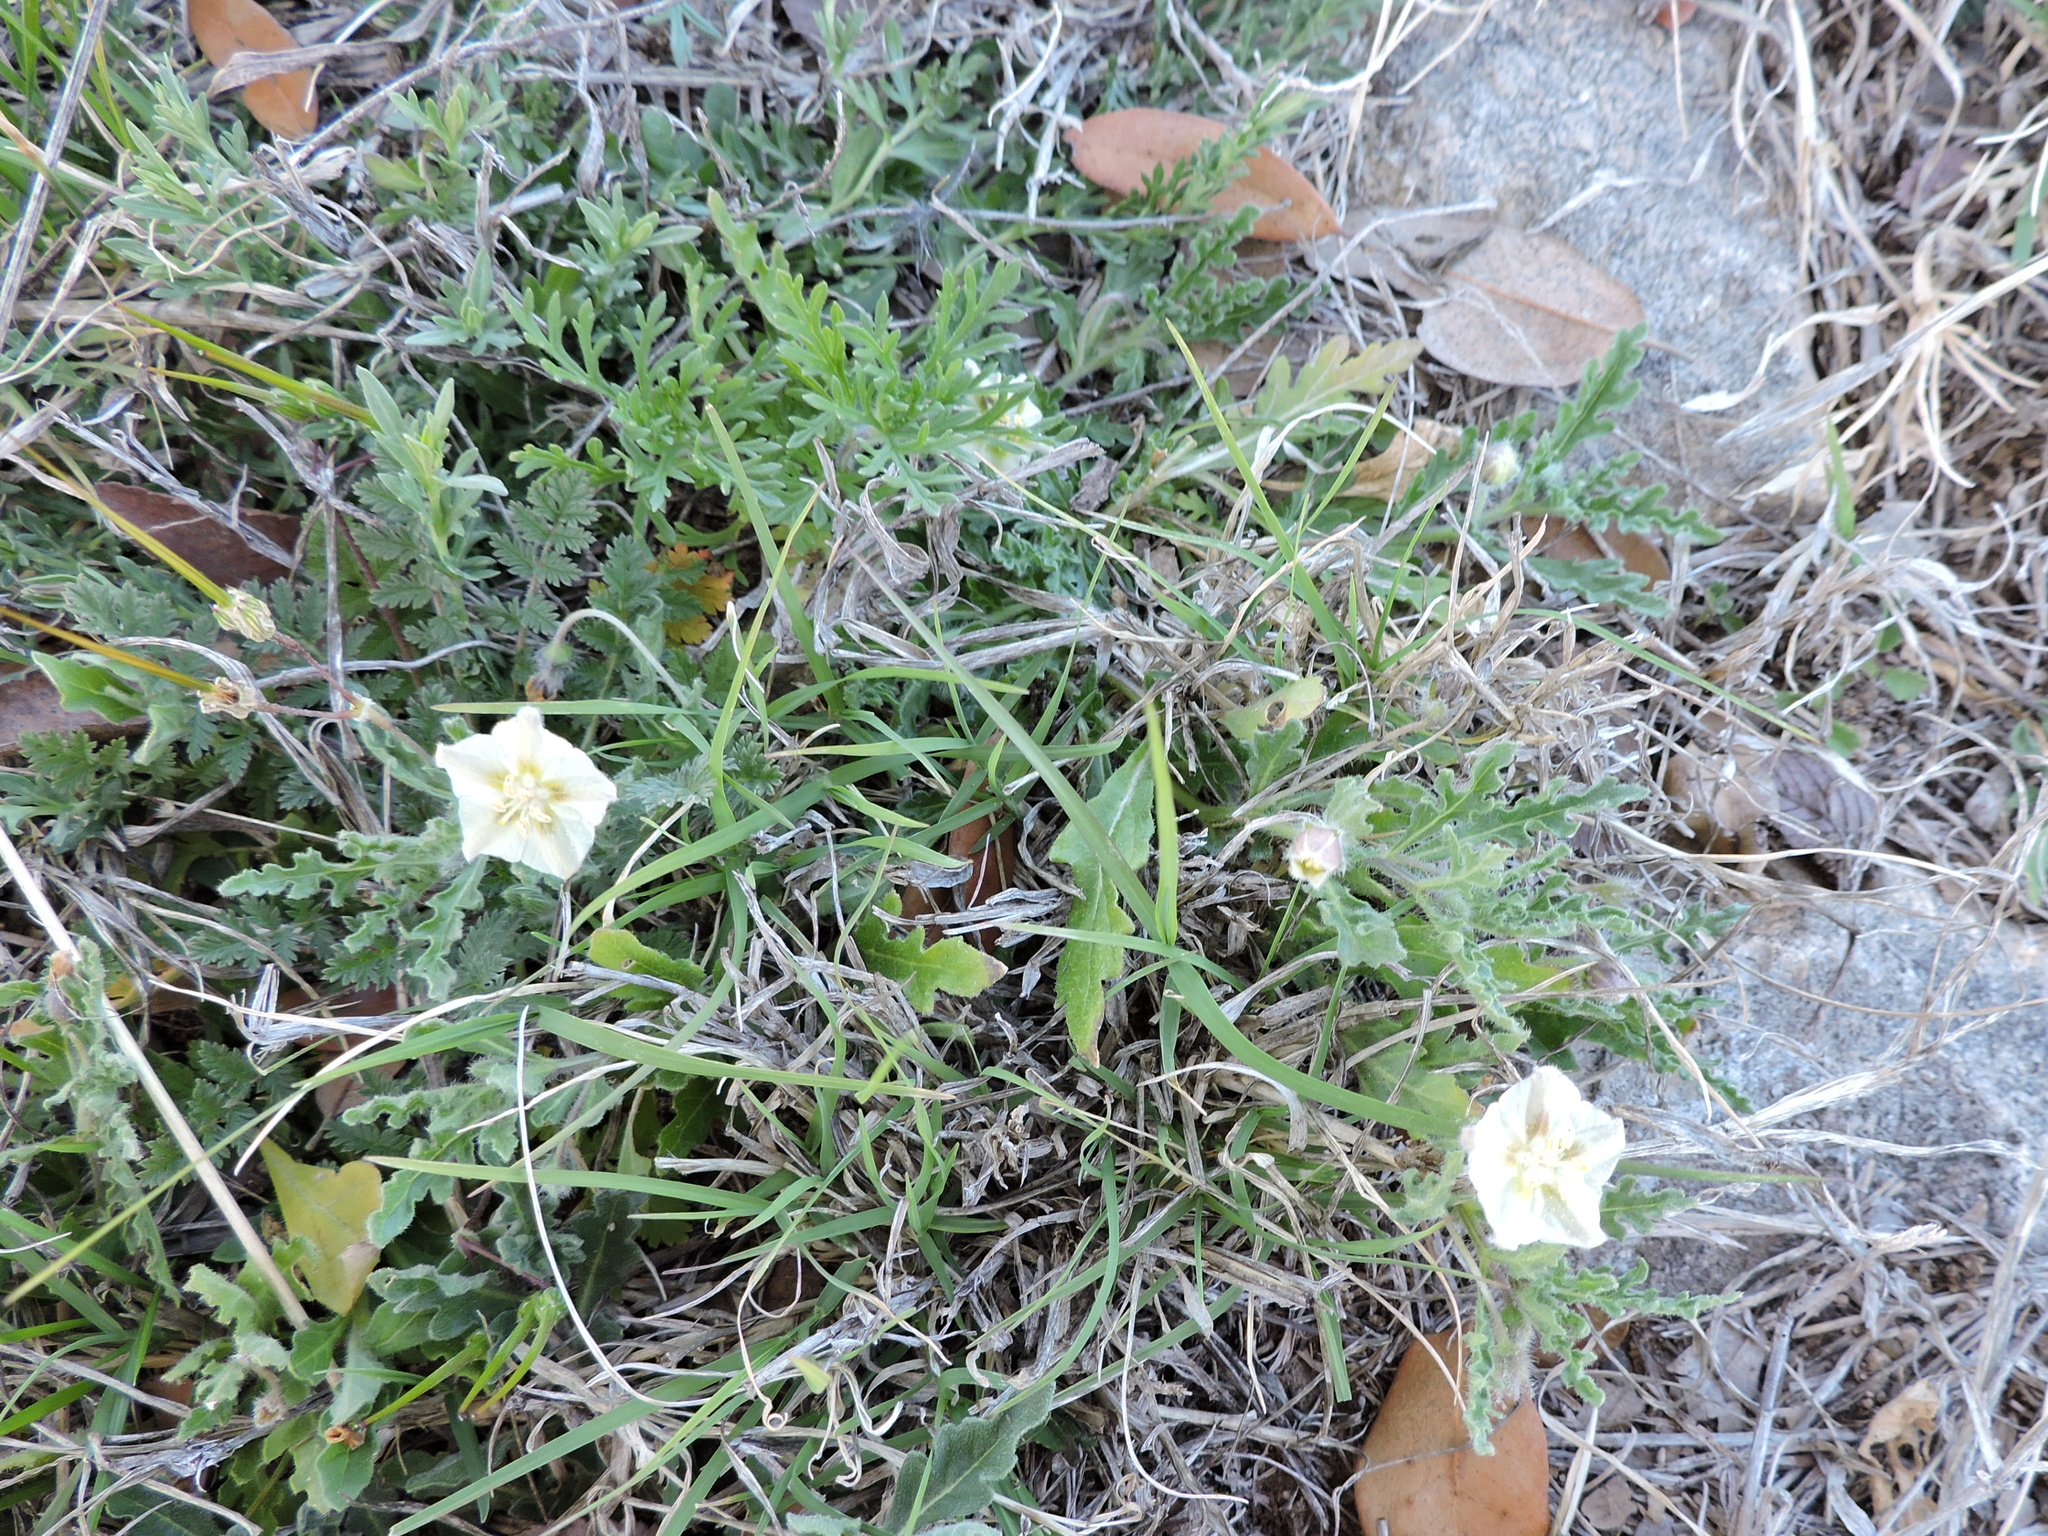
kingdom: Plantae
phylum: Tracheophyta
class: Magnoliopsida
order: Solanales
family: Solanaceae
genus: Chamaesaracha
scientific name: Chamaesaracha coniodes
